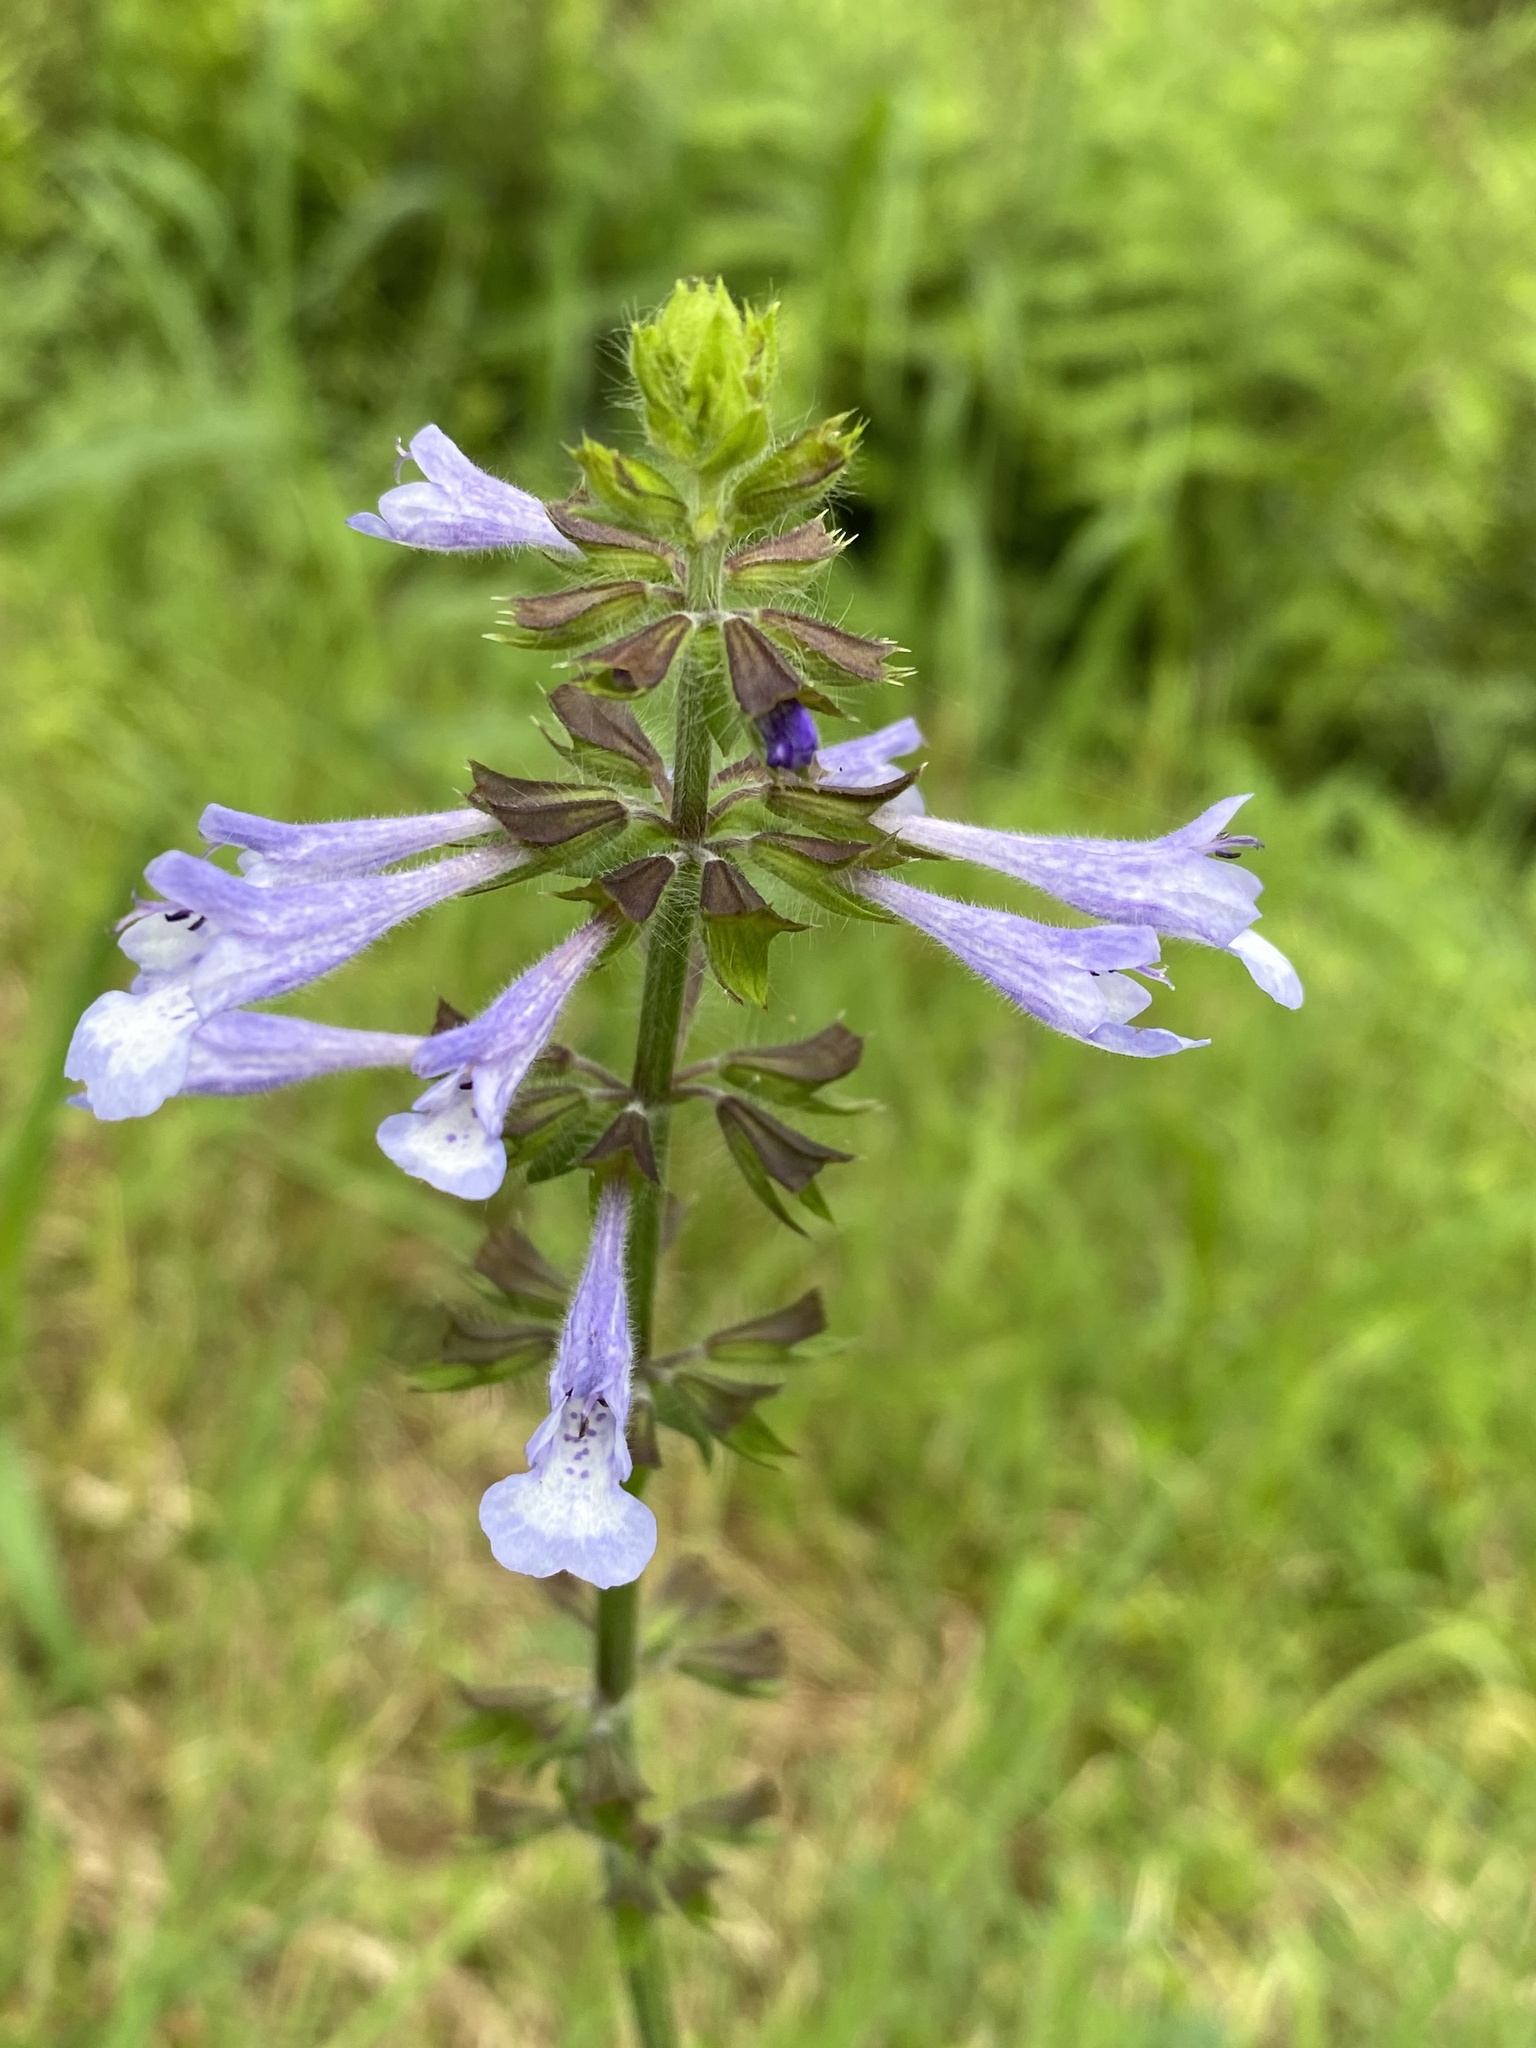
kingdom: Plantae
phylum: Tracheophyta
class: Magnoliopsida
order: Lamiales
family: Lamiaceae
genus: Salvia
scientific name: Salvia lyrata
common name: Cancerweed
